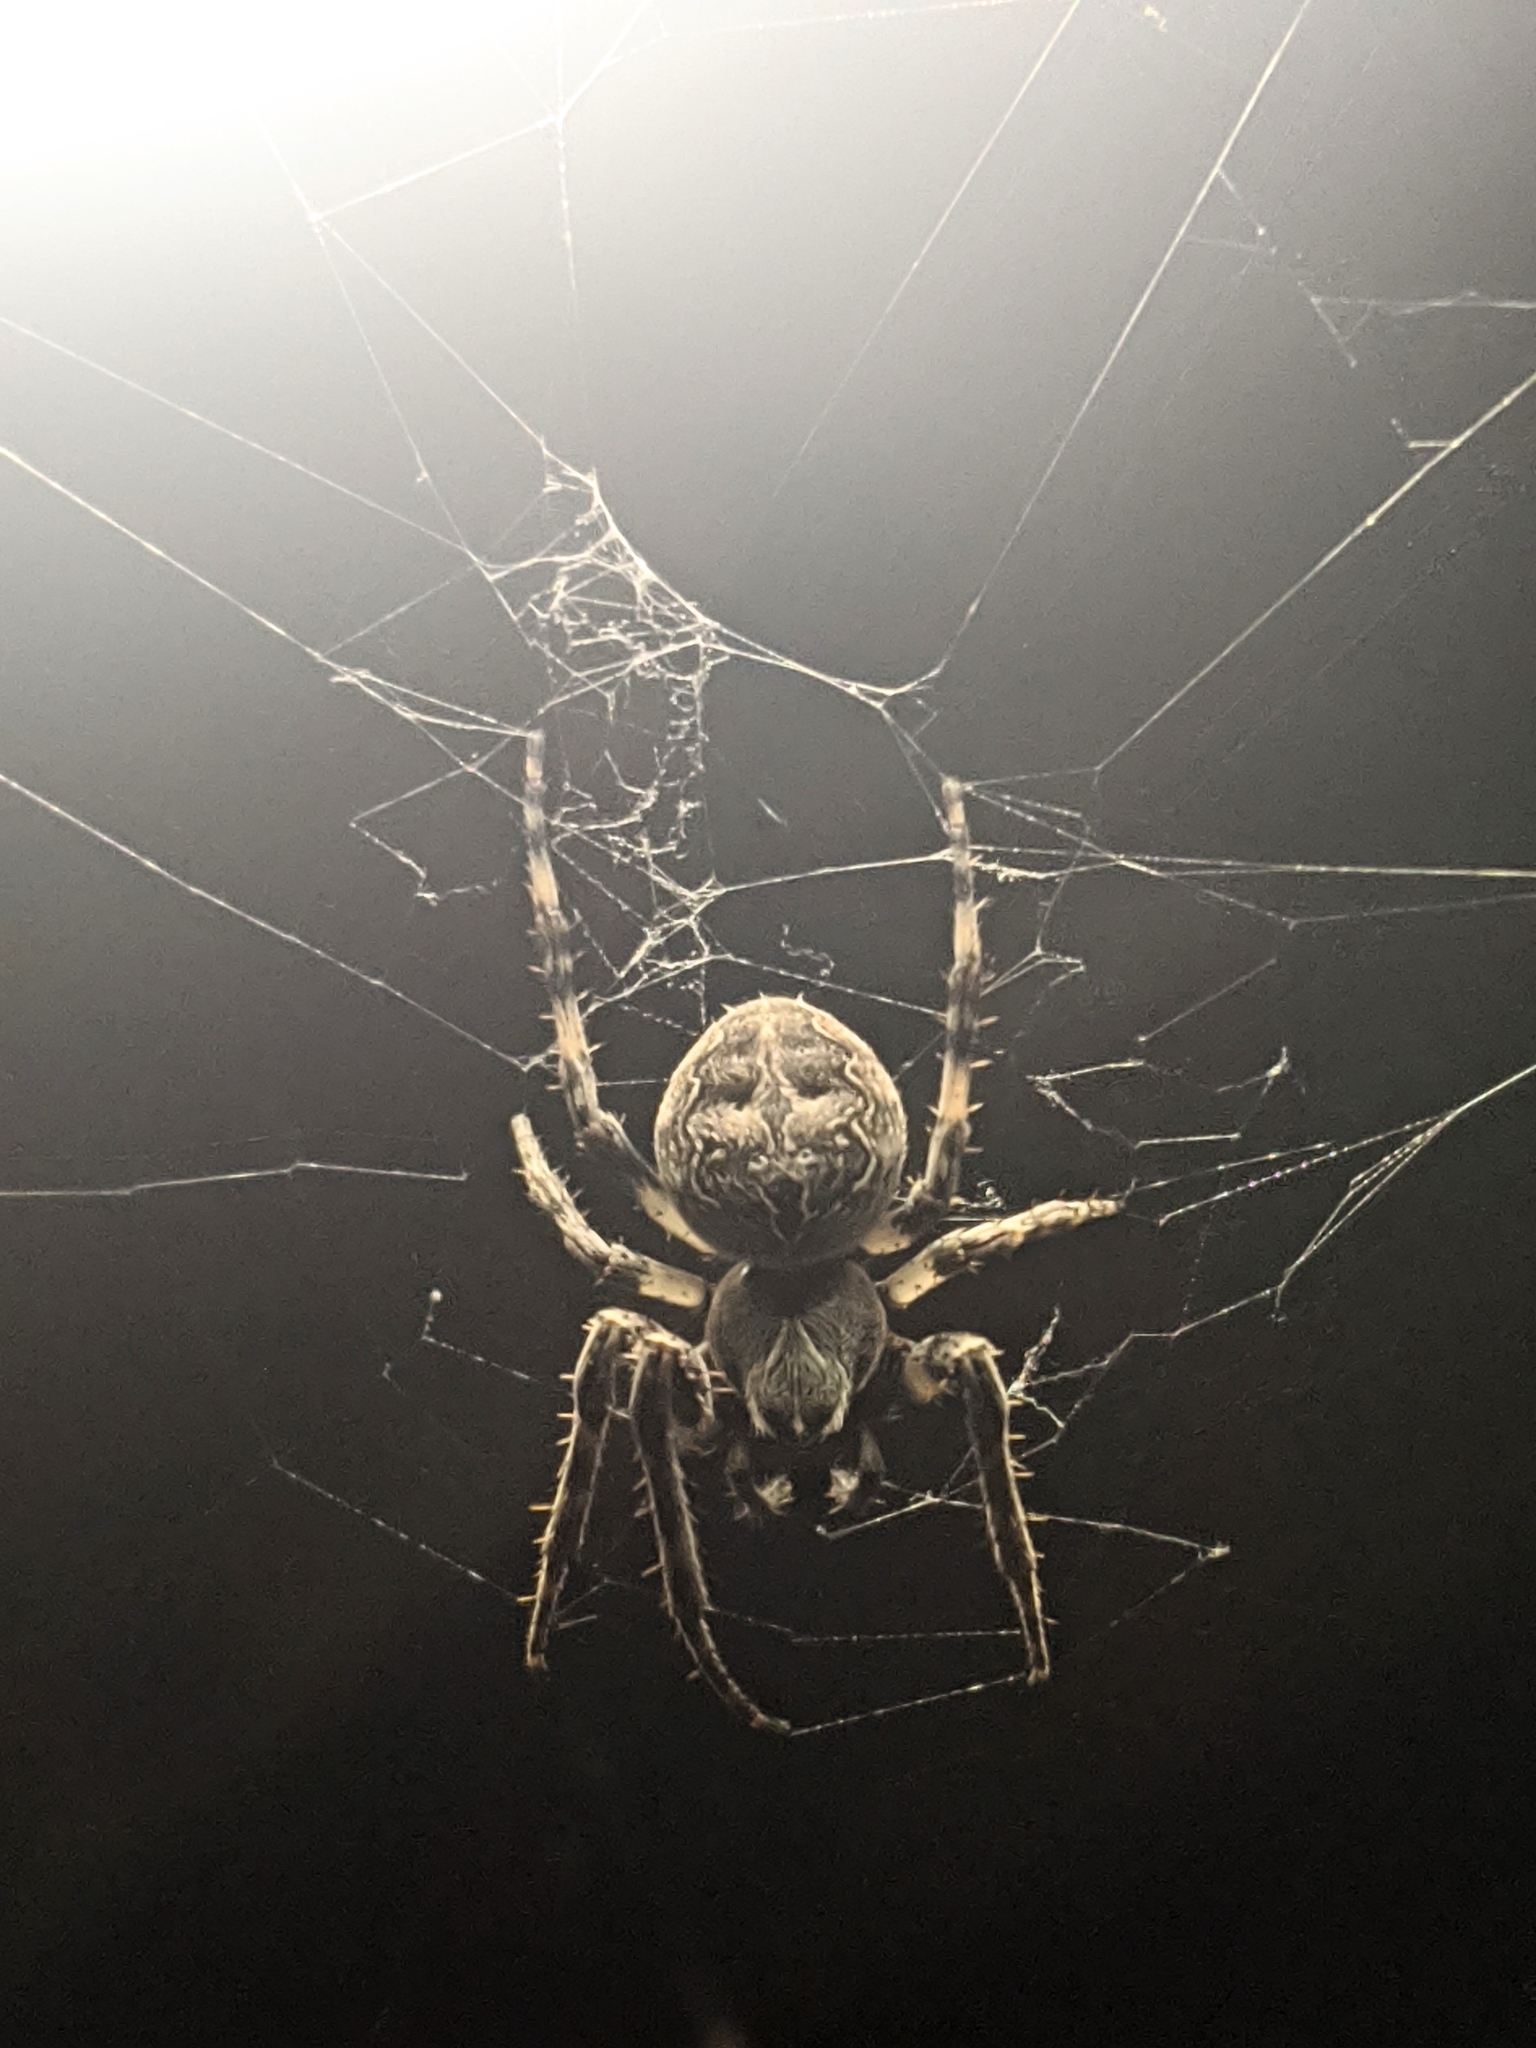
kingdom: Animalia
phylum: Arthropoda
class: Arachnida
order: Araneae
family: Araneidae
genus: Larinioides
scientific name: Larinioides sclopetarius
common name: Bridge orbweaver
